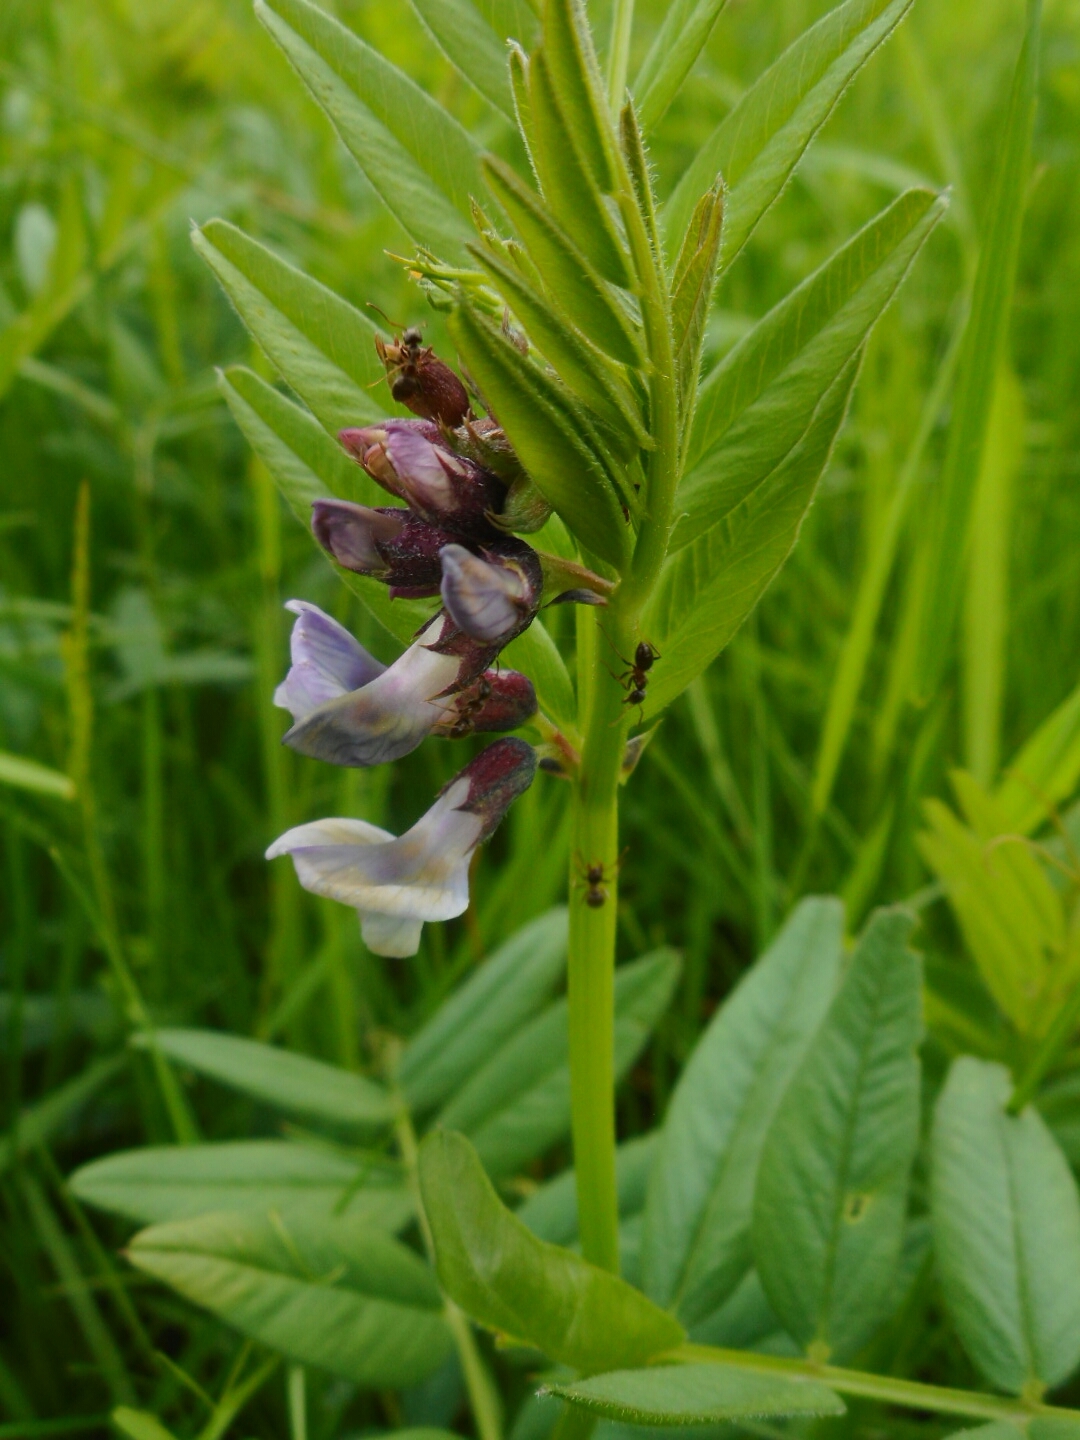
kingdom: Plantae
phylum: Tracheophyta
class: Magnoliopsida
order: Fabales
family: Fabaceae
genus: Vicia
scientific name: Vicia sepium
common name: Bush vetch
